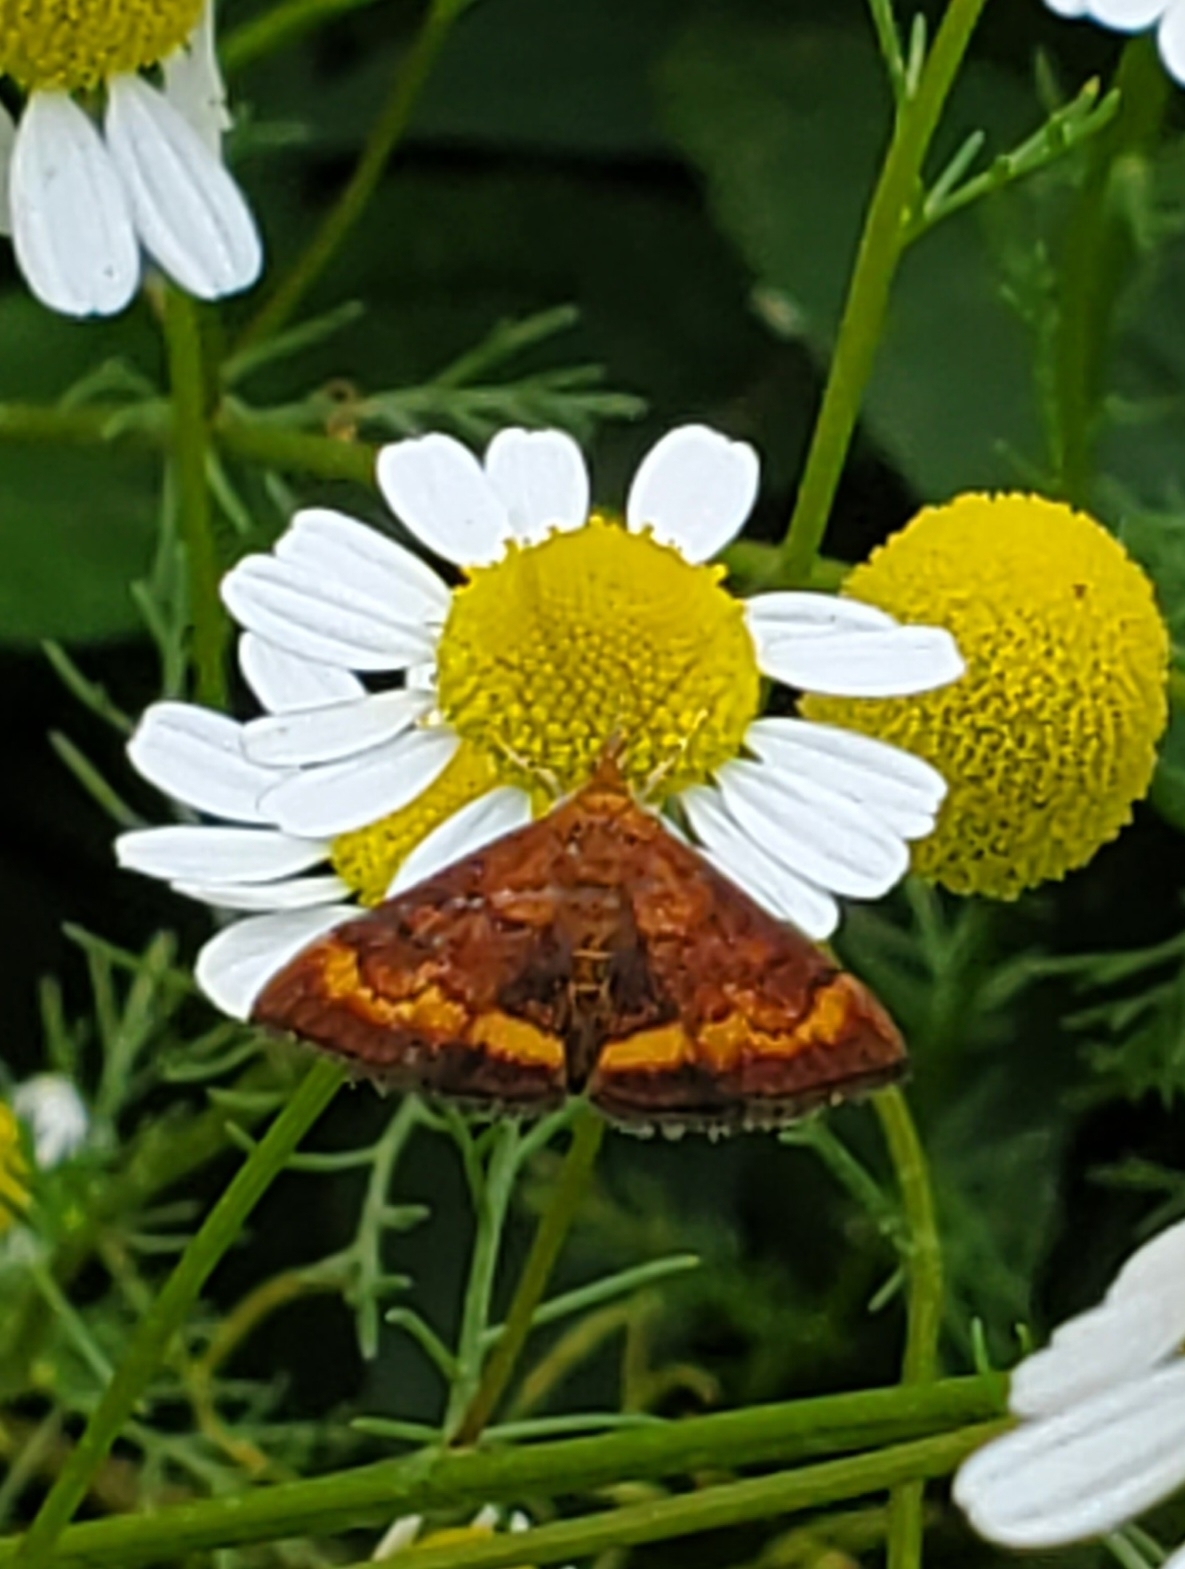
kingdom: Animalia
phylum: Arthropoda
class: Insecta
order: Lepidoptera
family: Crambidae
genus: Pyrausta
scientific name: Pyrausta californicalis
